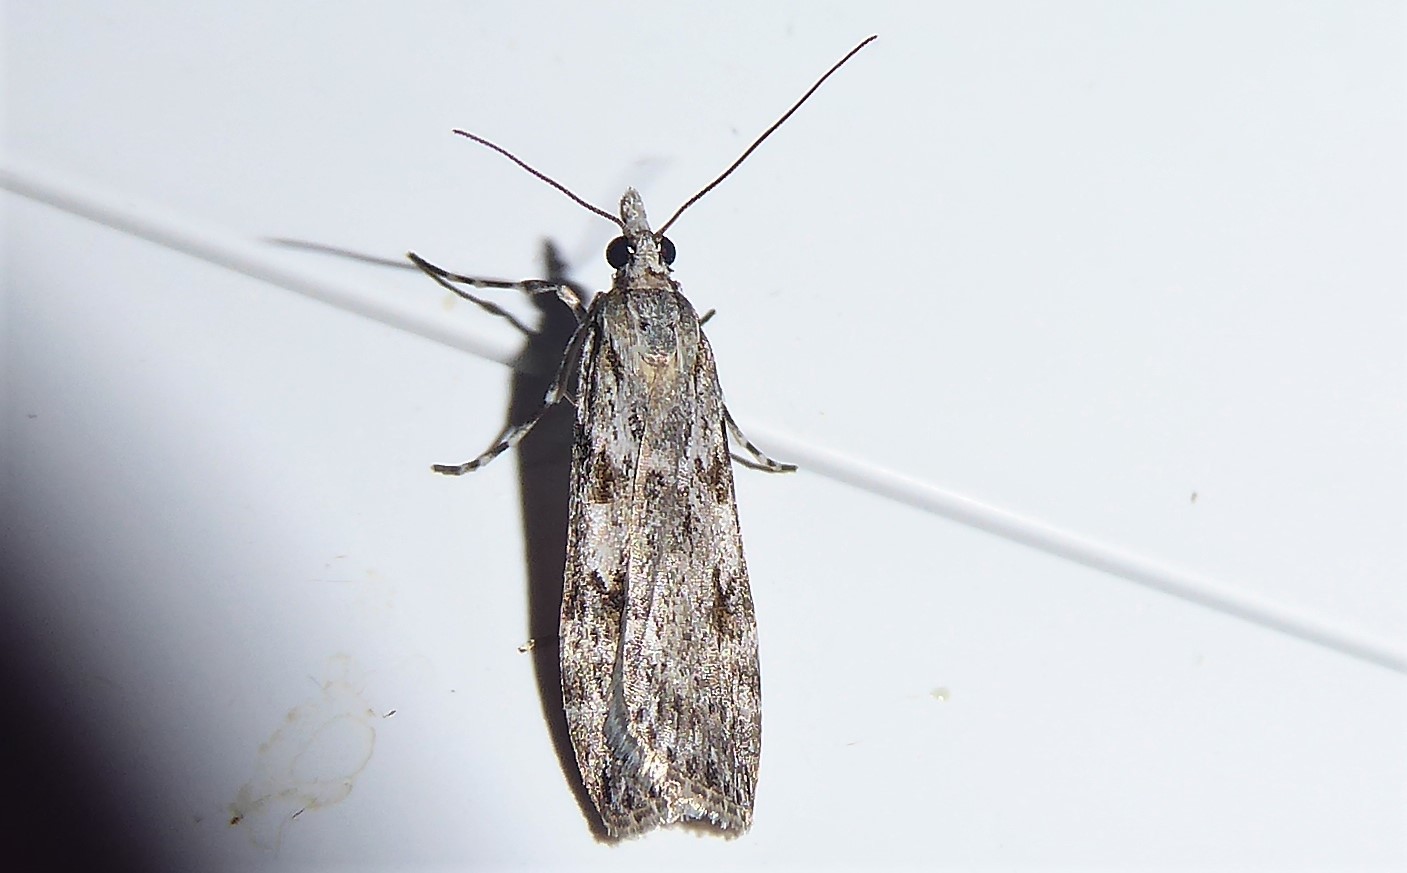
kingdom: Animalia
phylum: Arthropoda
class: Insecta
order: Lepidoptera
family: Crambidae
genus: Scoparia
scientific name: Scoparia halopis
